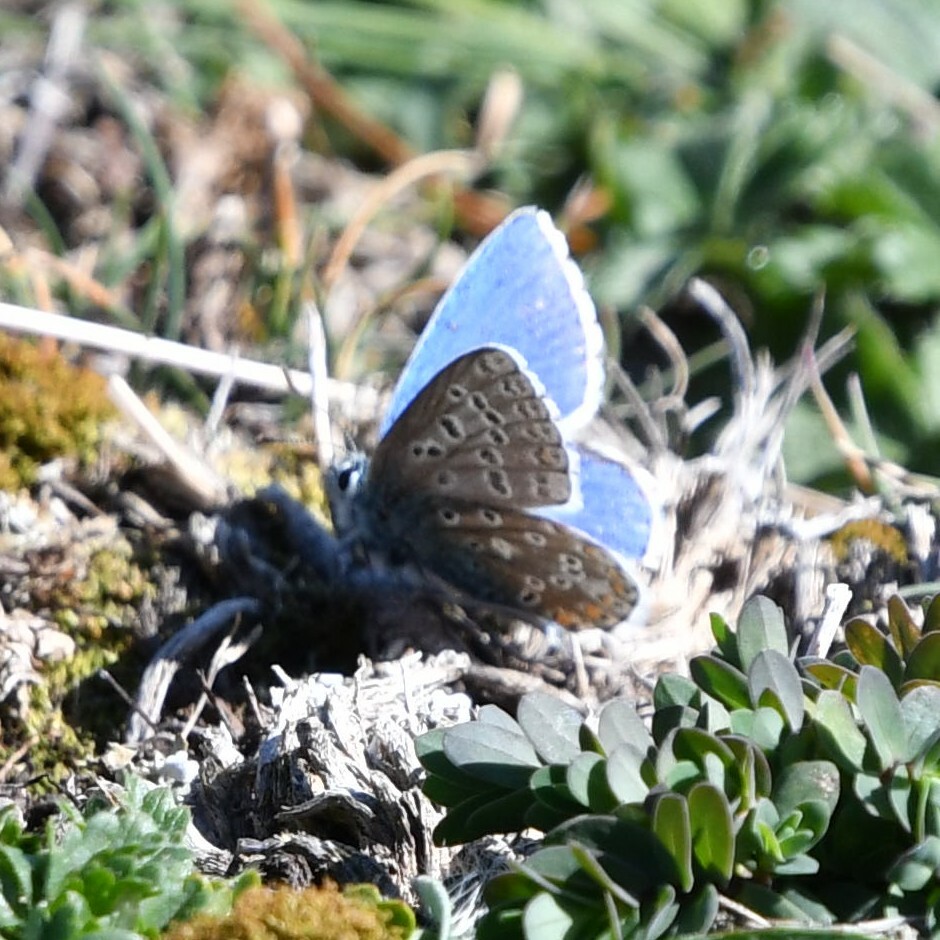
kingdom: Animalia
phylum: Arthropoda
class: Insecta
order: Lepidoptera
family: Lycaenidae
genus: Lysandra
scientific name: Lysandra bellargus
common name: Adonis blue
